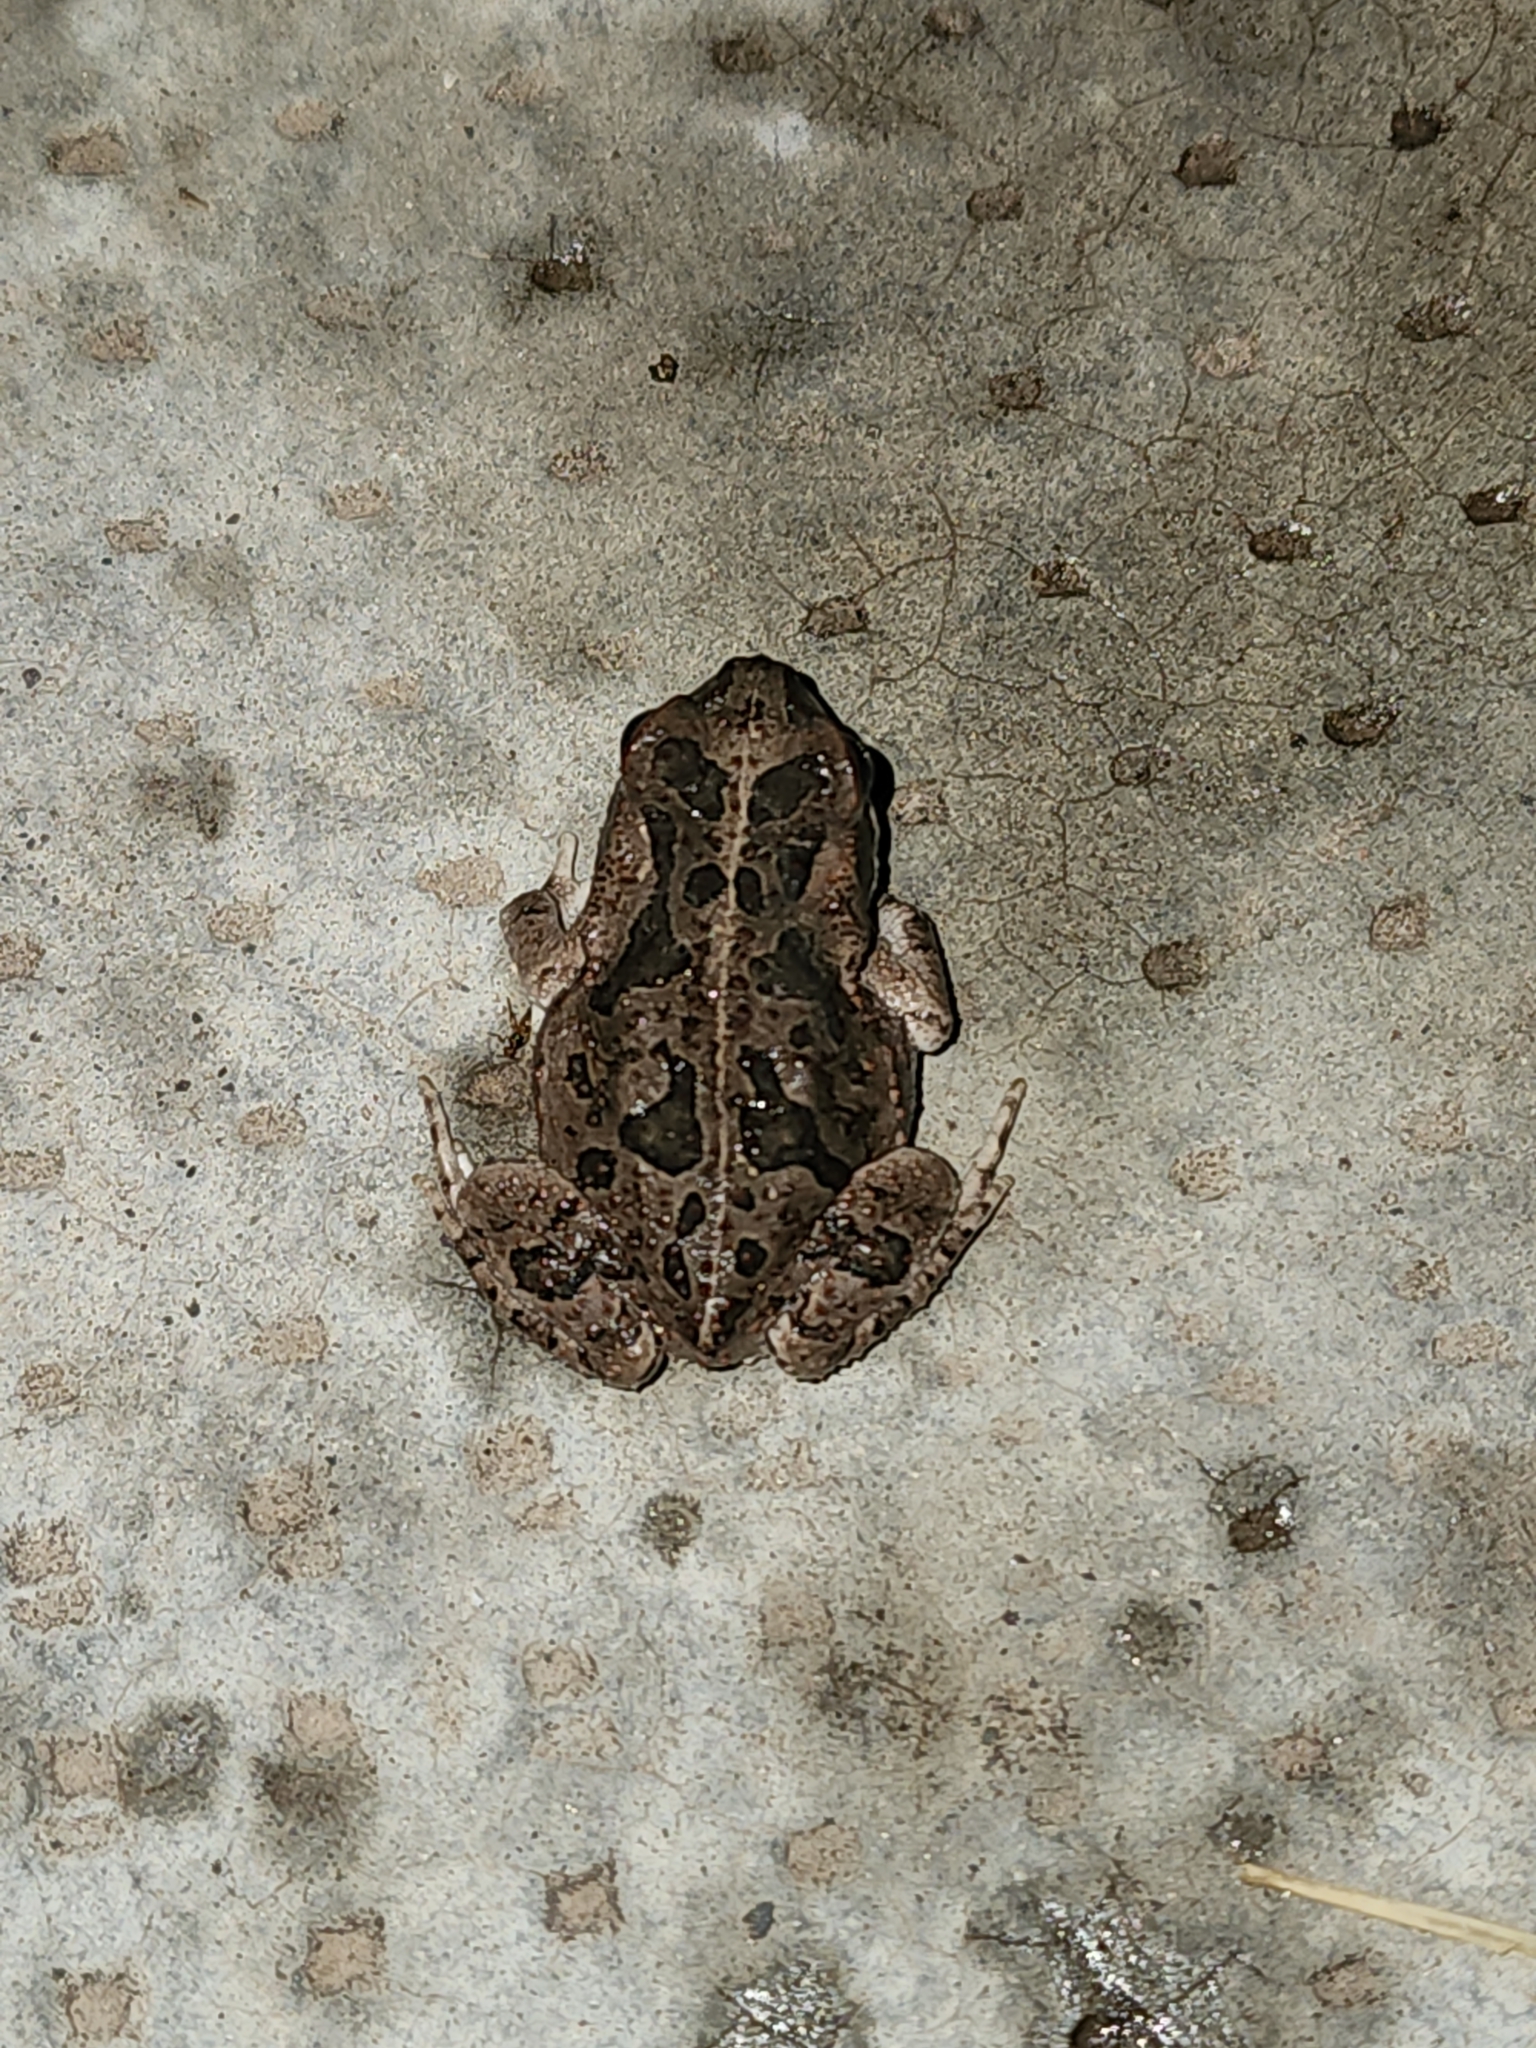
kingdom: Animalia
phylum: Chordata
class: Amphibia
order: Anura
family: Bufonidae
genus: Rhinella
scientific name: Rhinella arenarum
